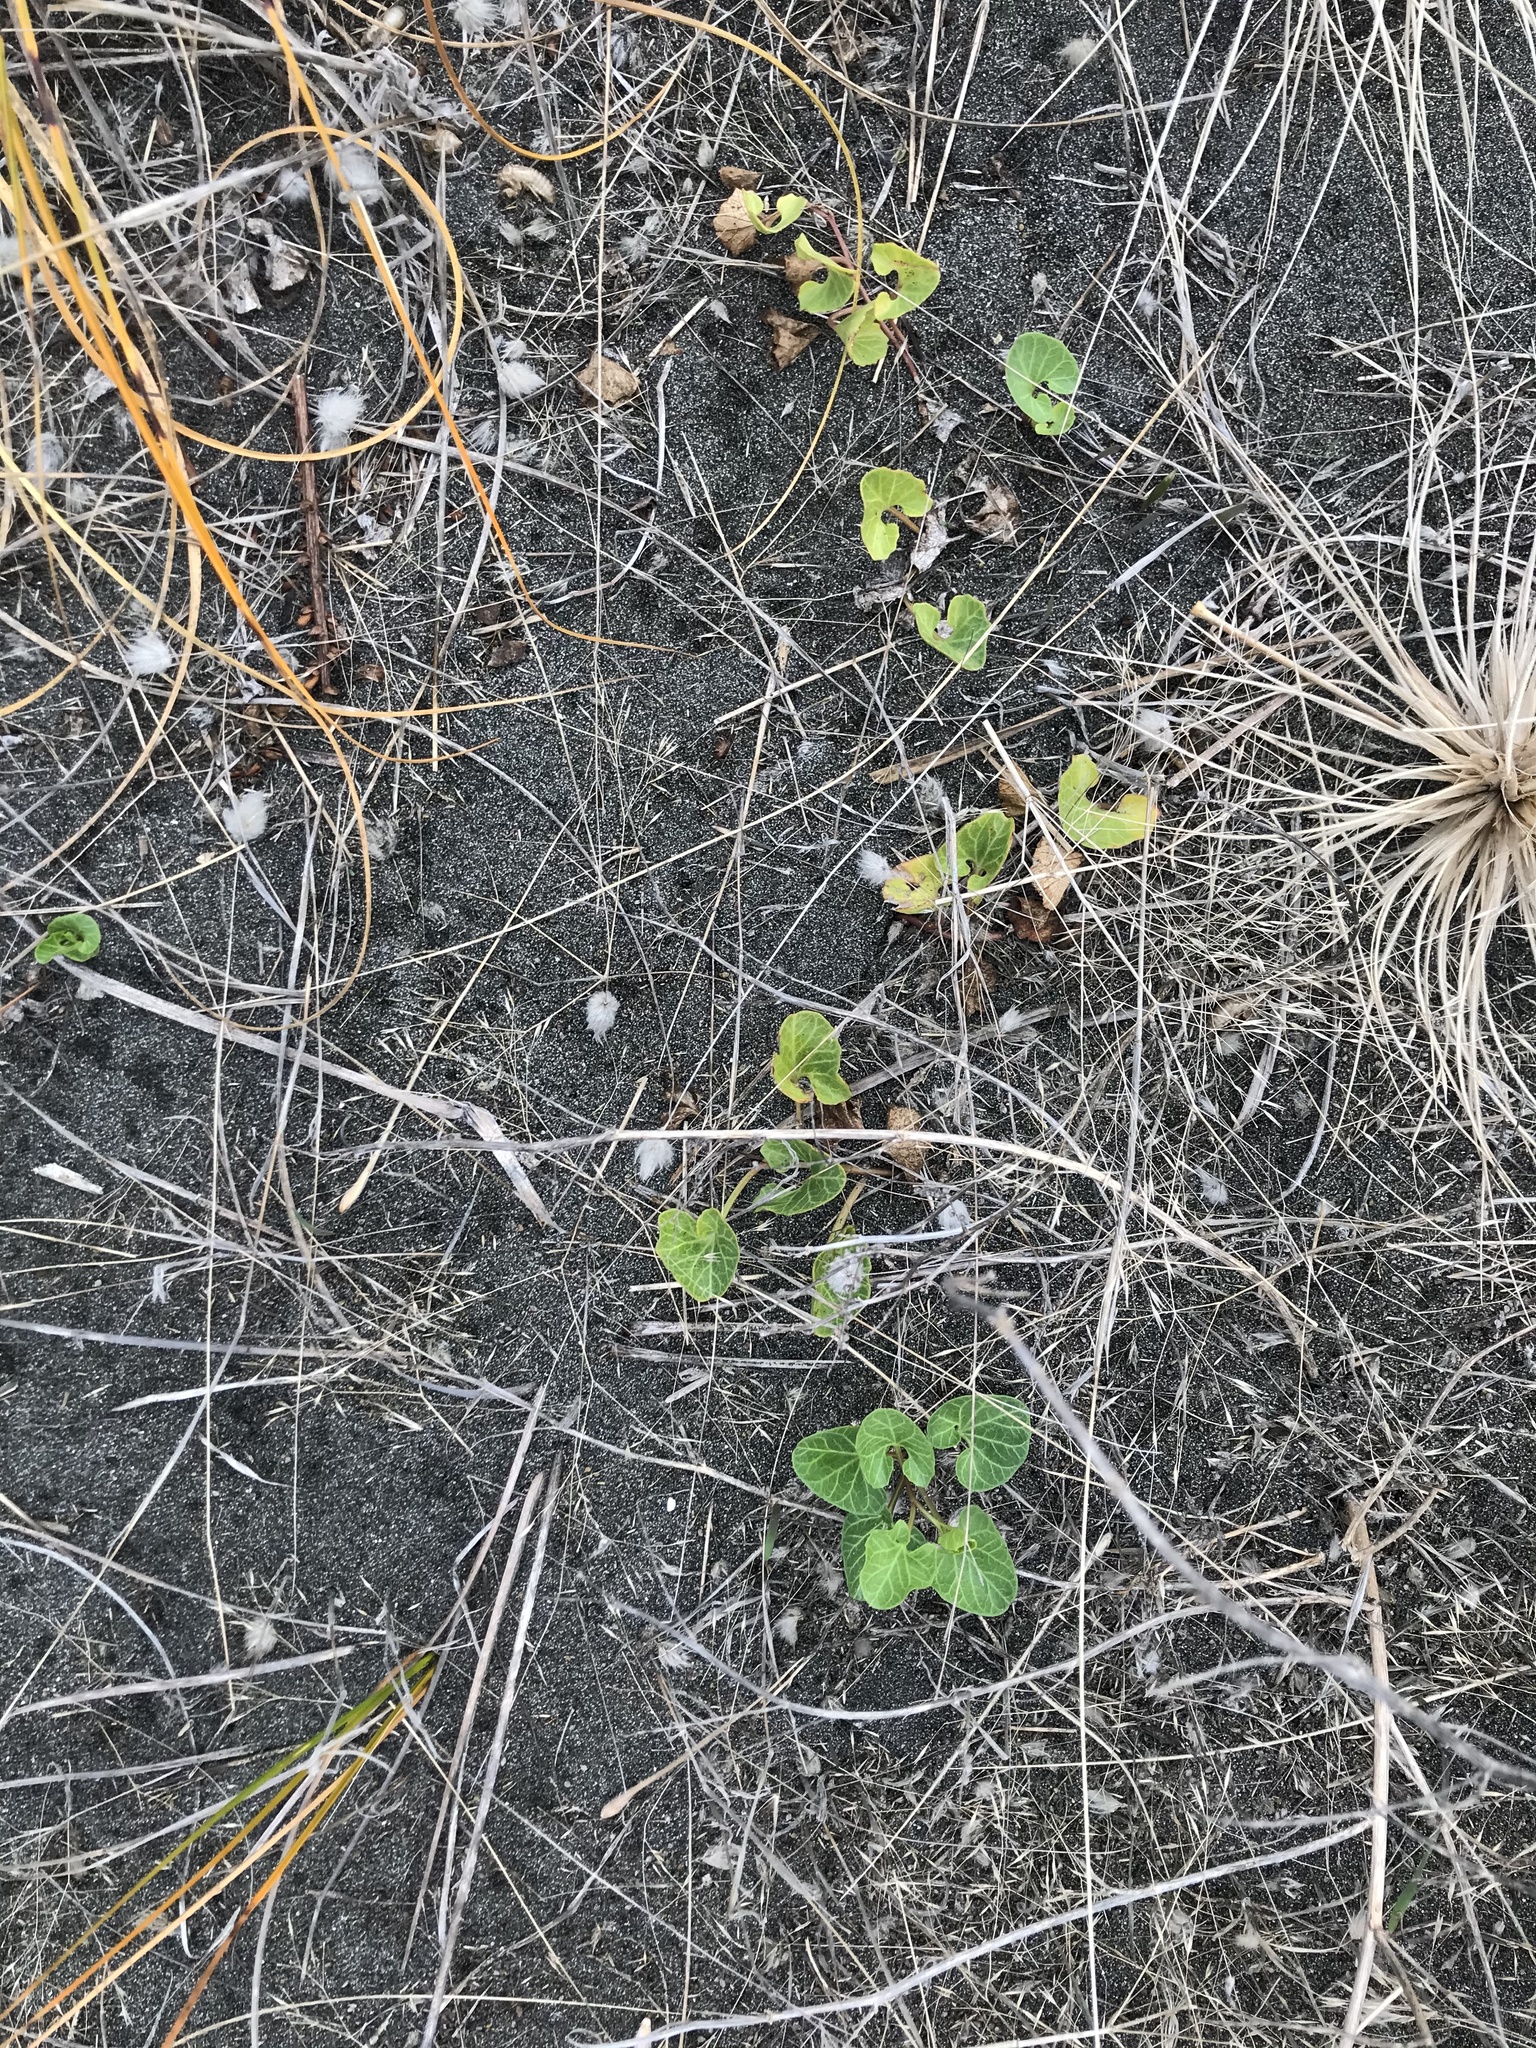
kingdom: Plantae
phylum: Tracheophyta
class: Magnoliopsida
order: Solanales
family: Convolvulaceae
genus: Calystegia
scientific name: Calystegia soldanella
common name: Sea bindweed
